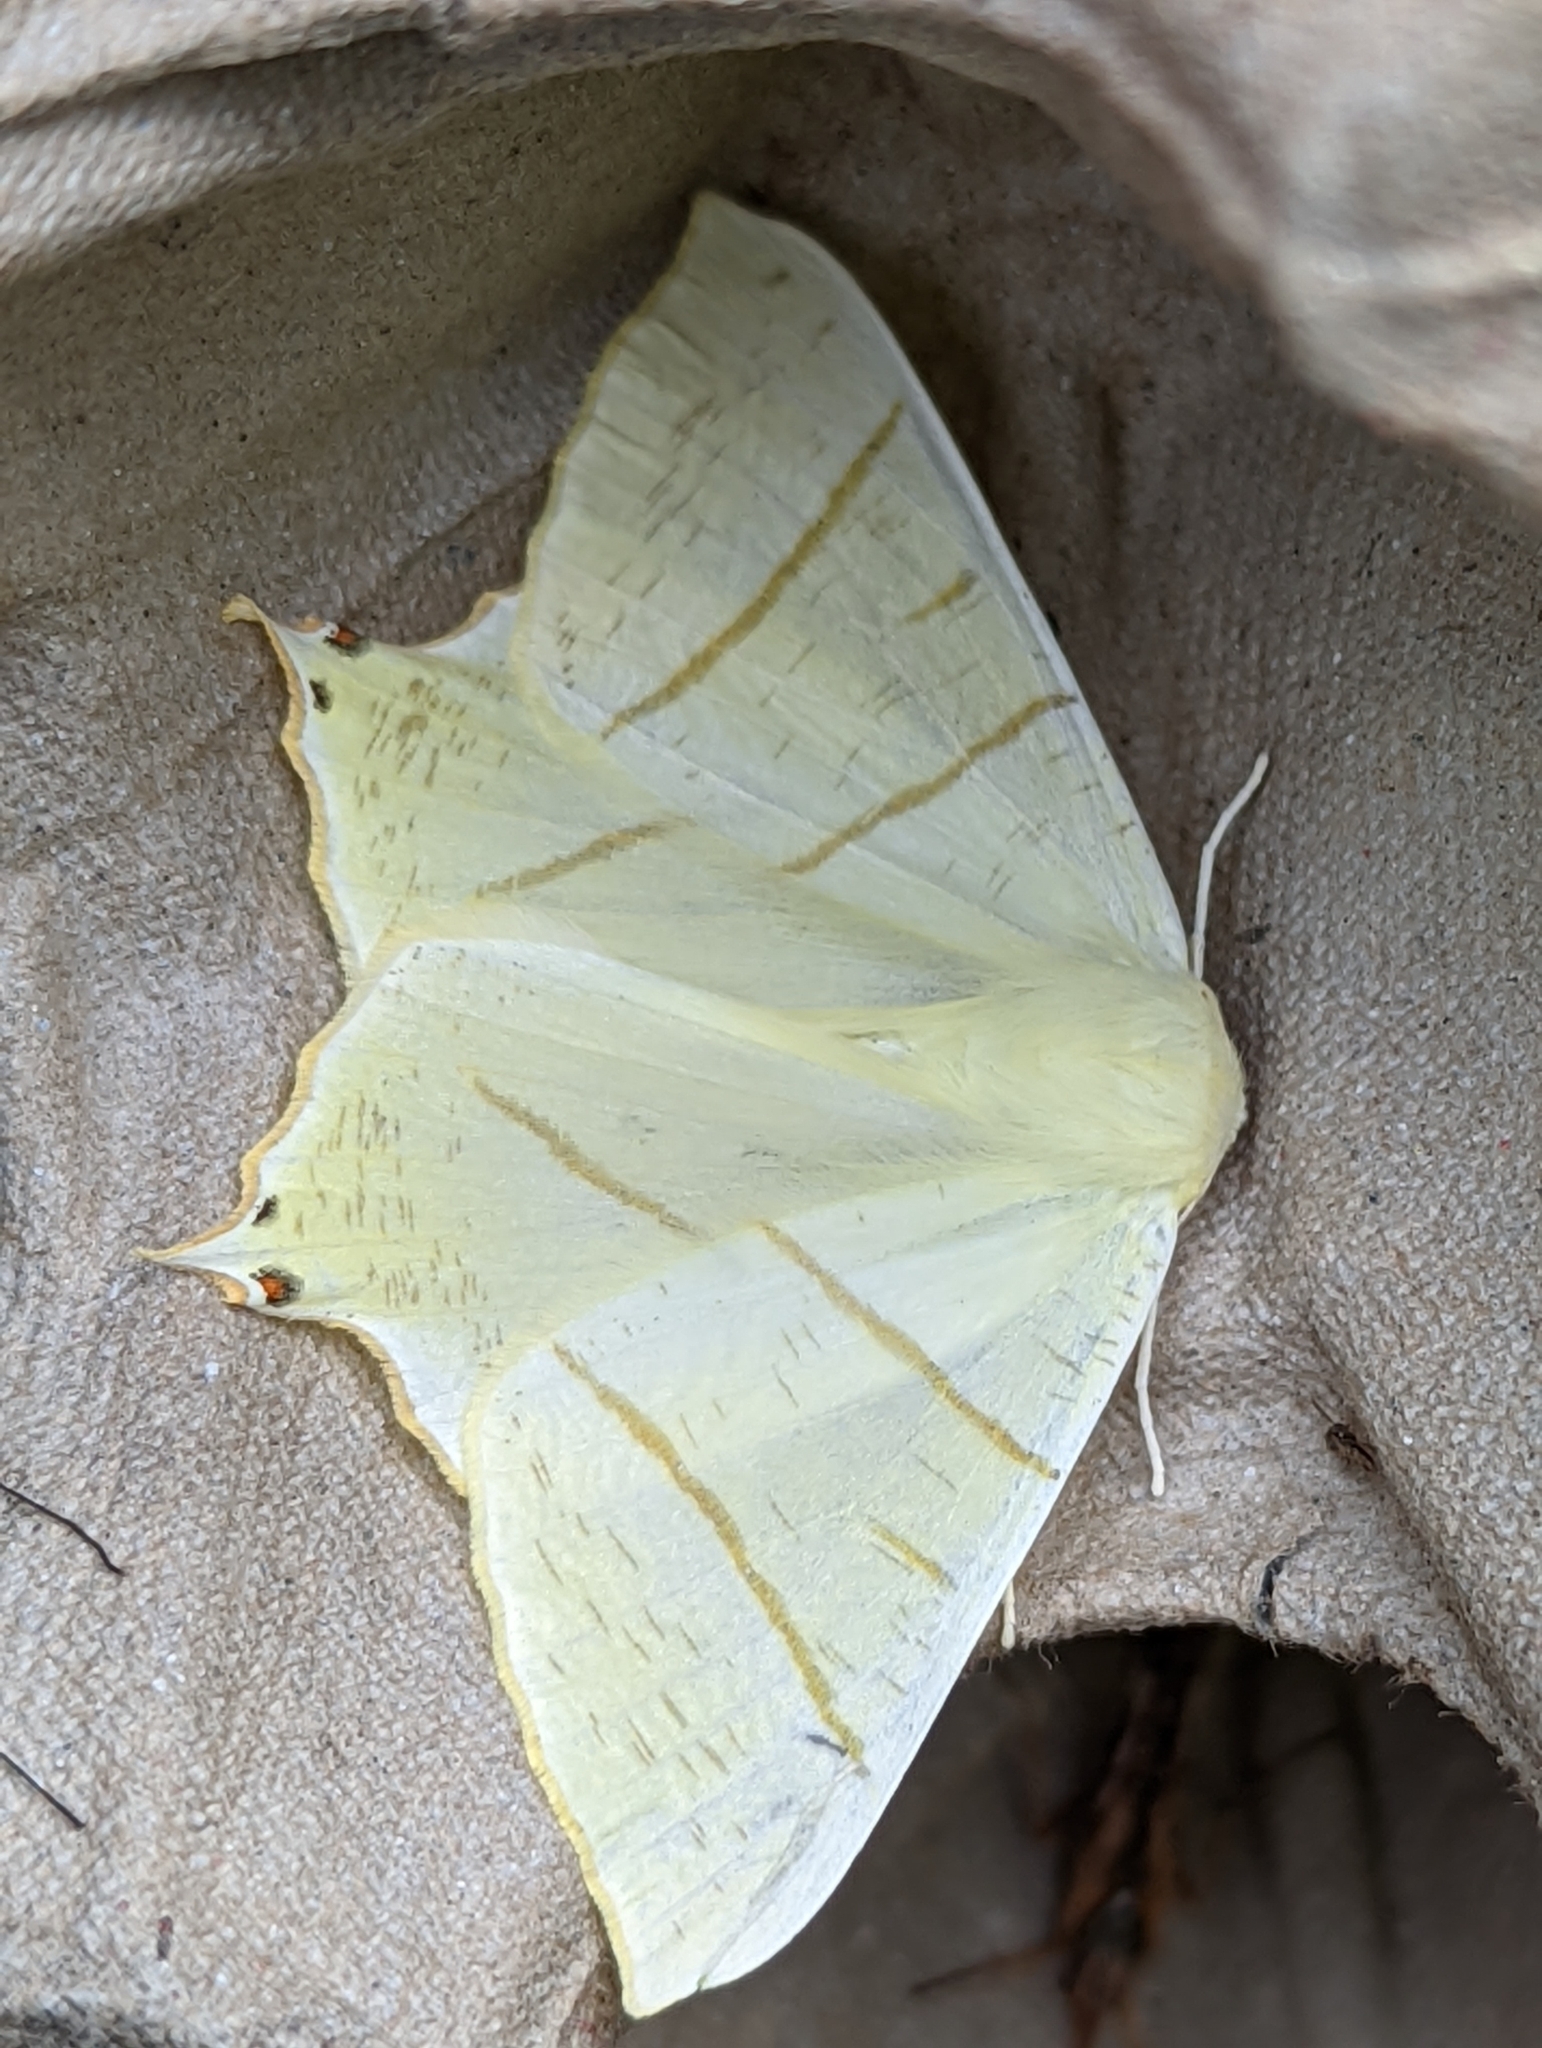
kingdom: Animalia
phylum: Arthropoda
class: Insecta
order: Lepidoptera
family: Geometridae
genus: Ourapteryx
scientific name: Ourapteryx sambucaria
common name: Swallow-tailed moth
